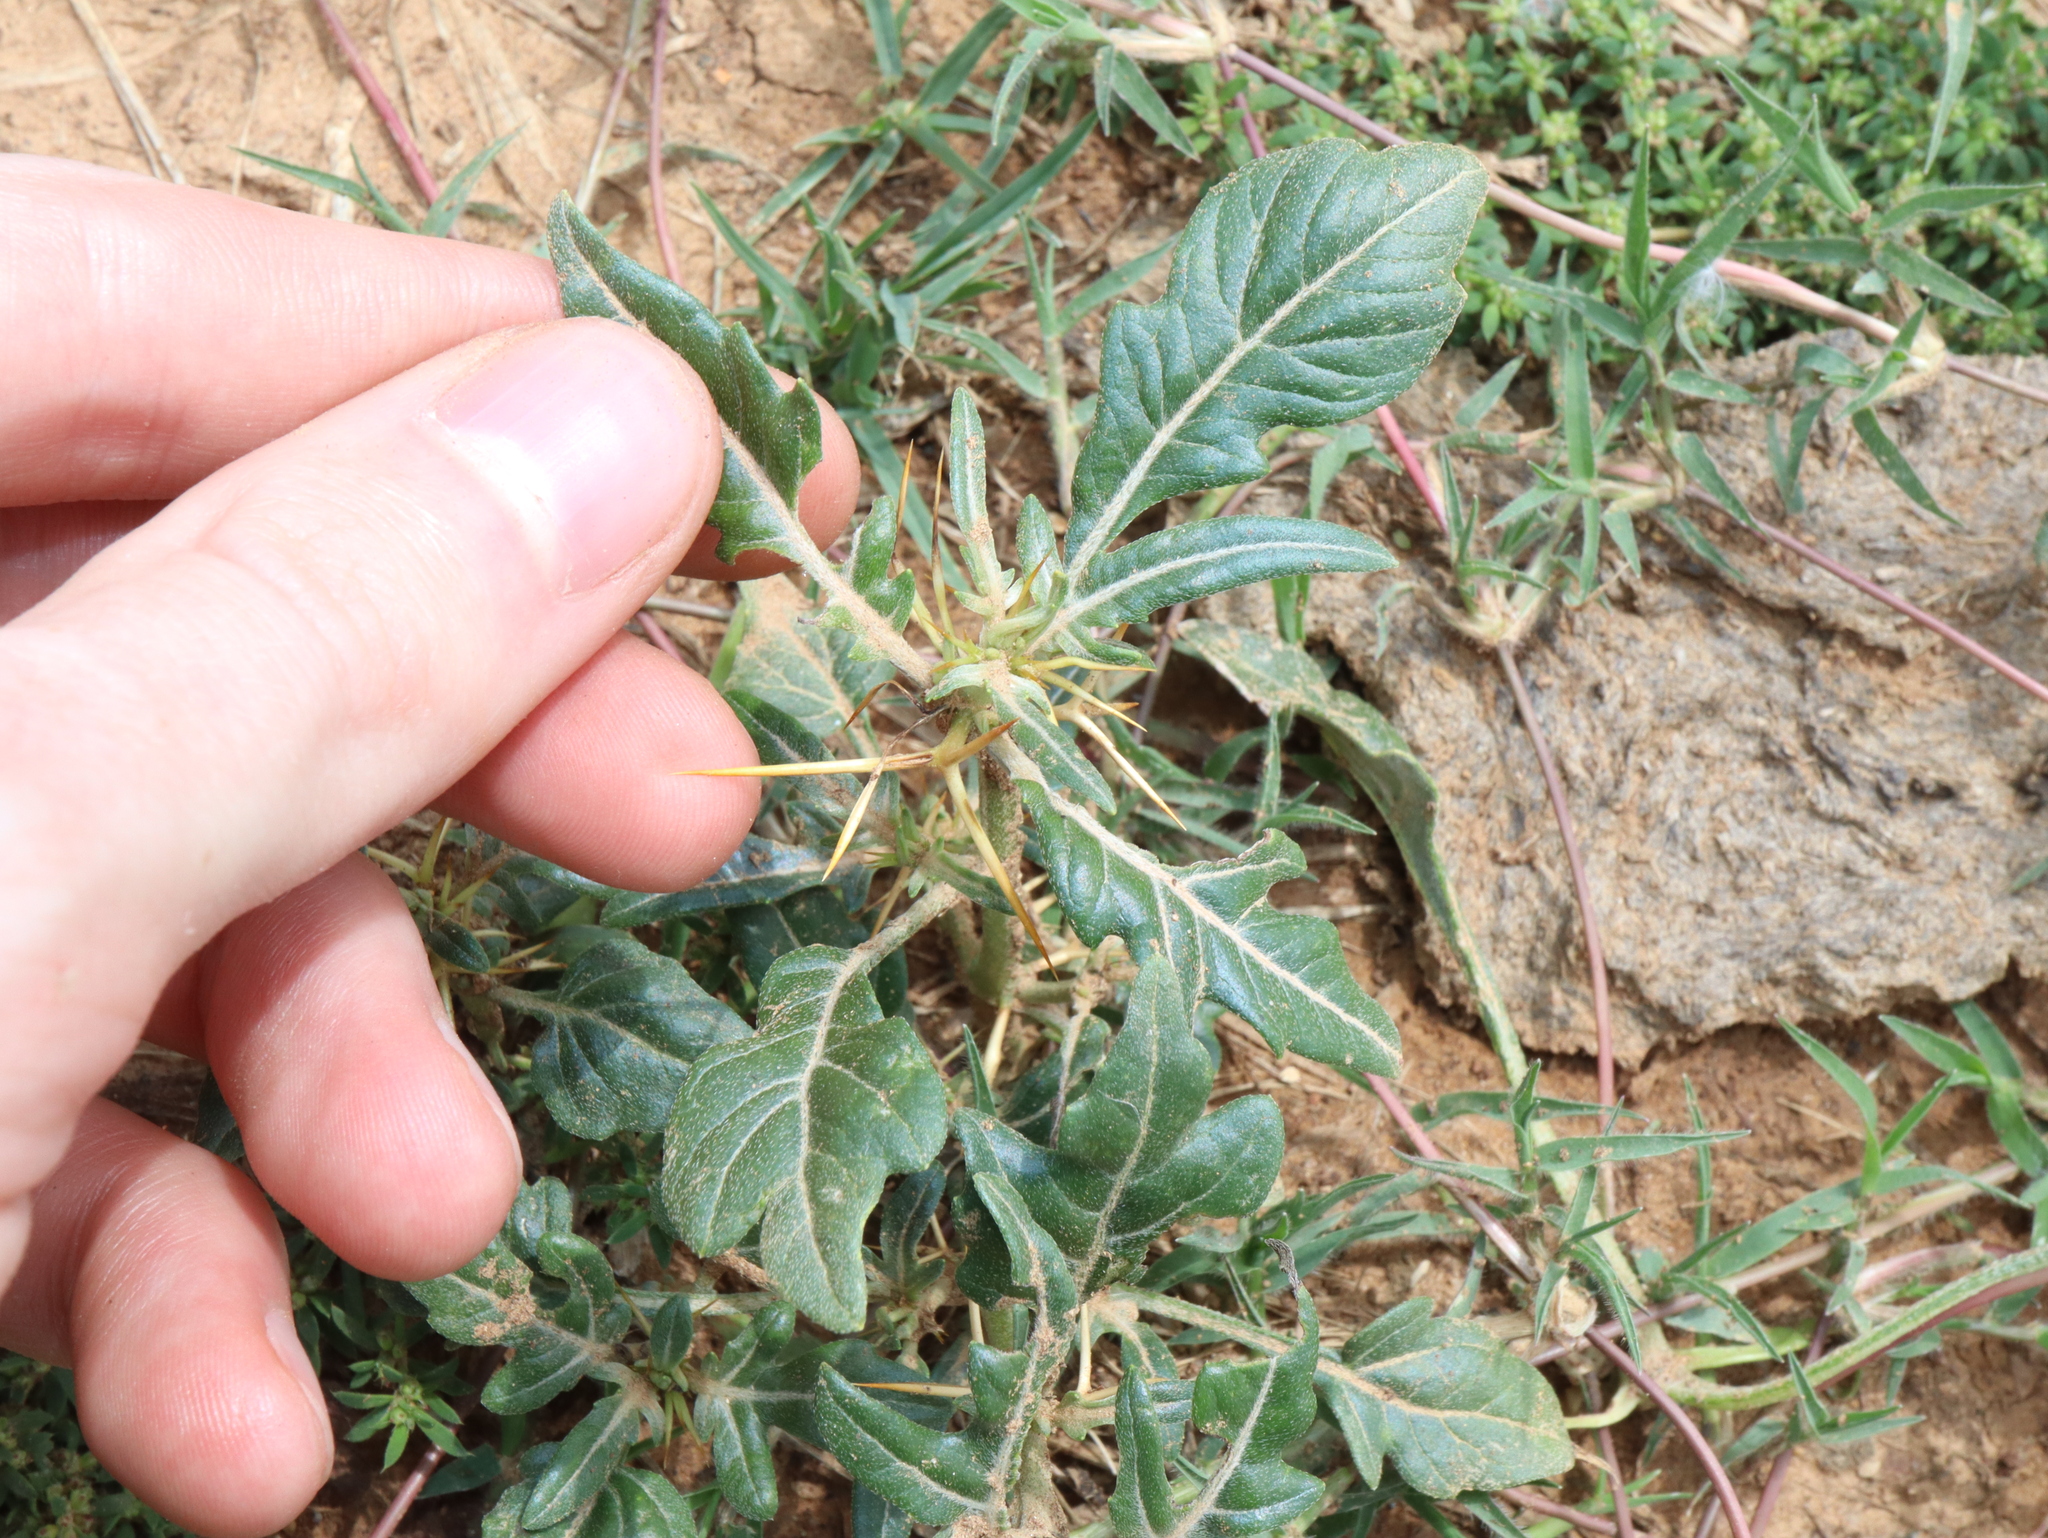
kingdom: Plantae
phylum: Tracheophyta
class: Magnoliopsida
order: Asterales
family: Asteraceae
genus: Xanthium
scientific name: Xanthium spinosum
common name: Spiny cocklebur
